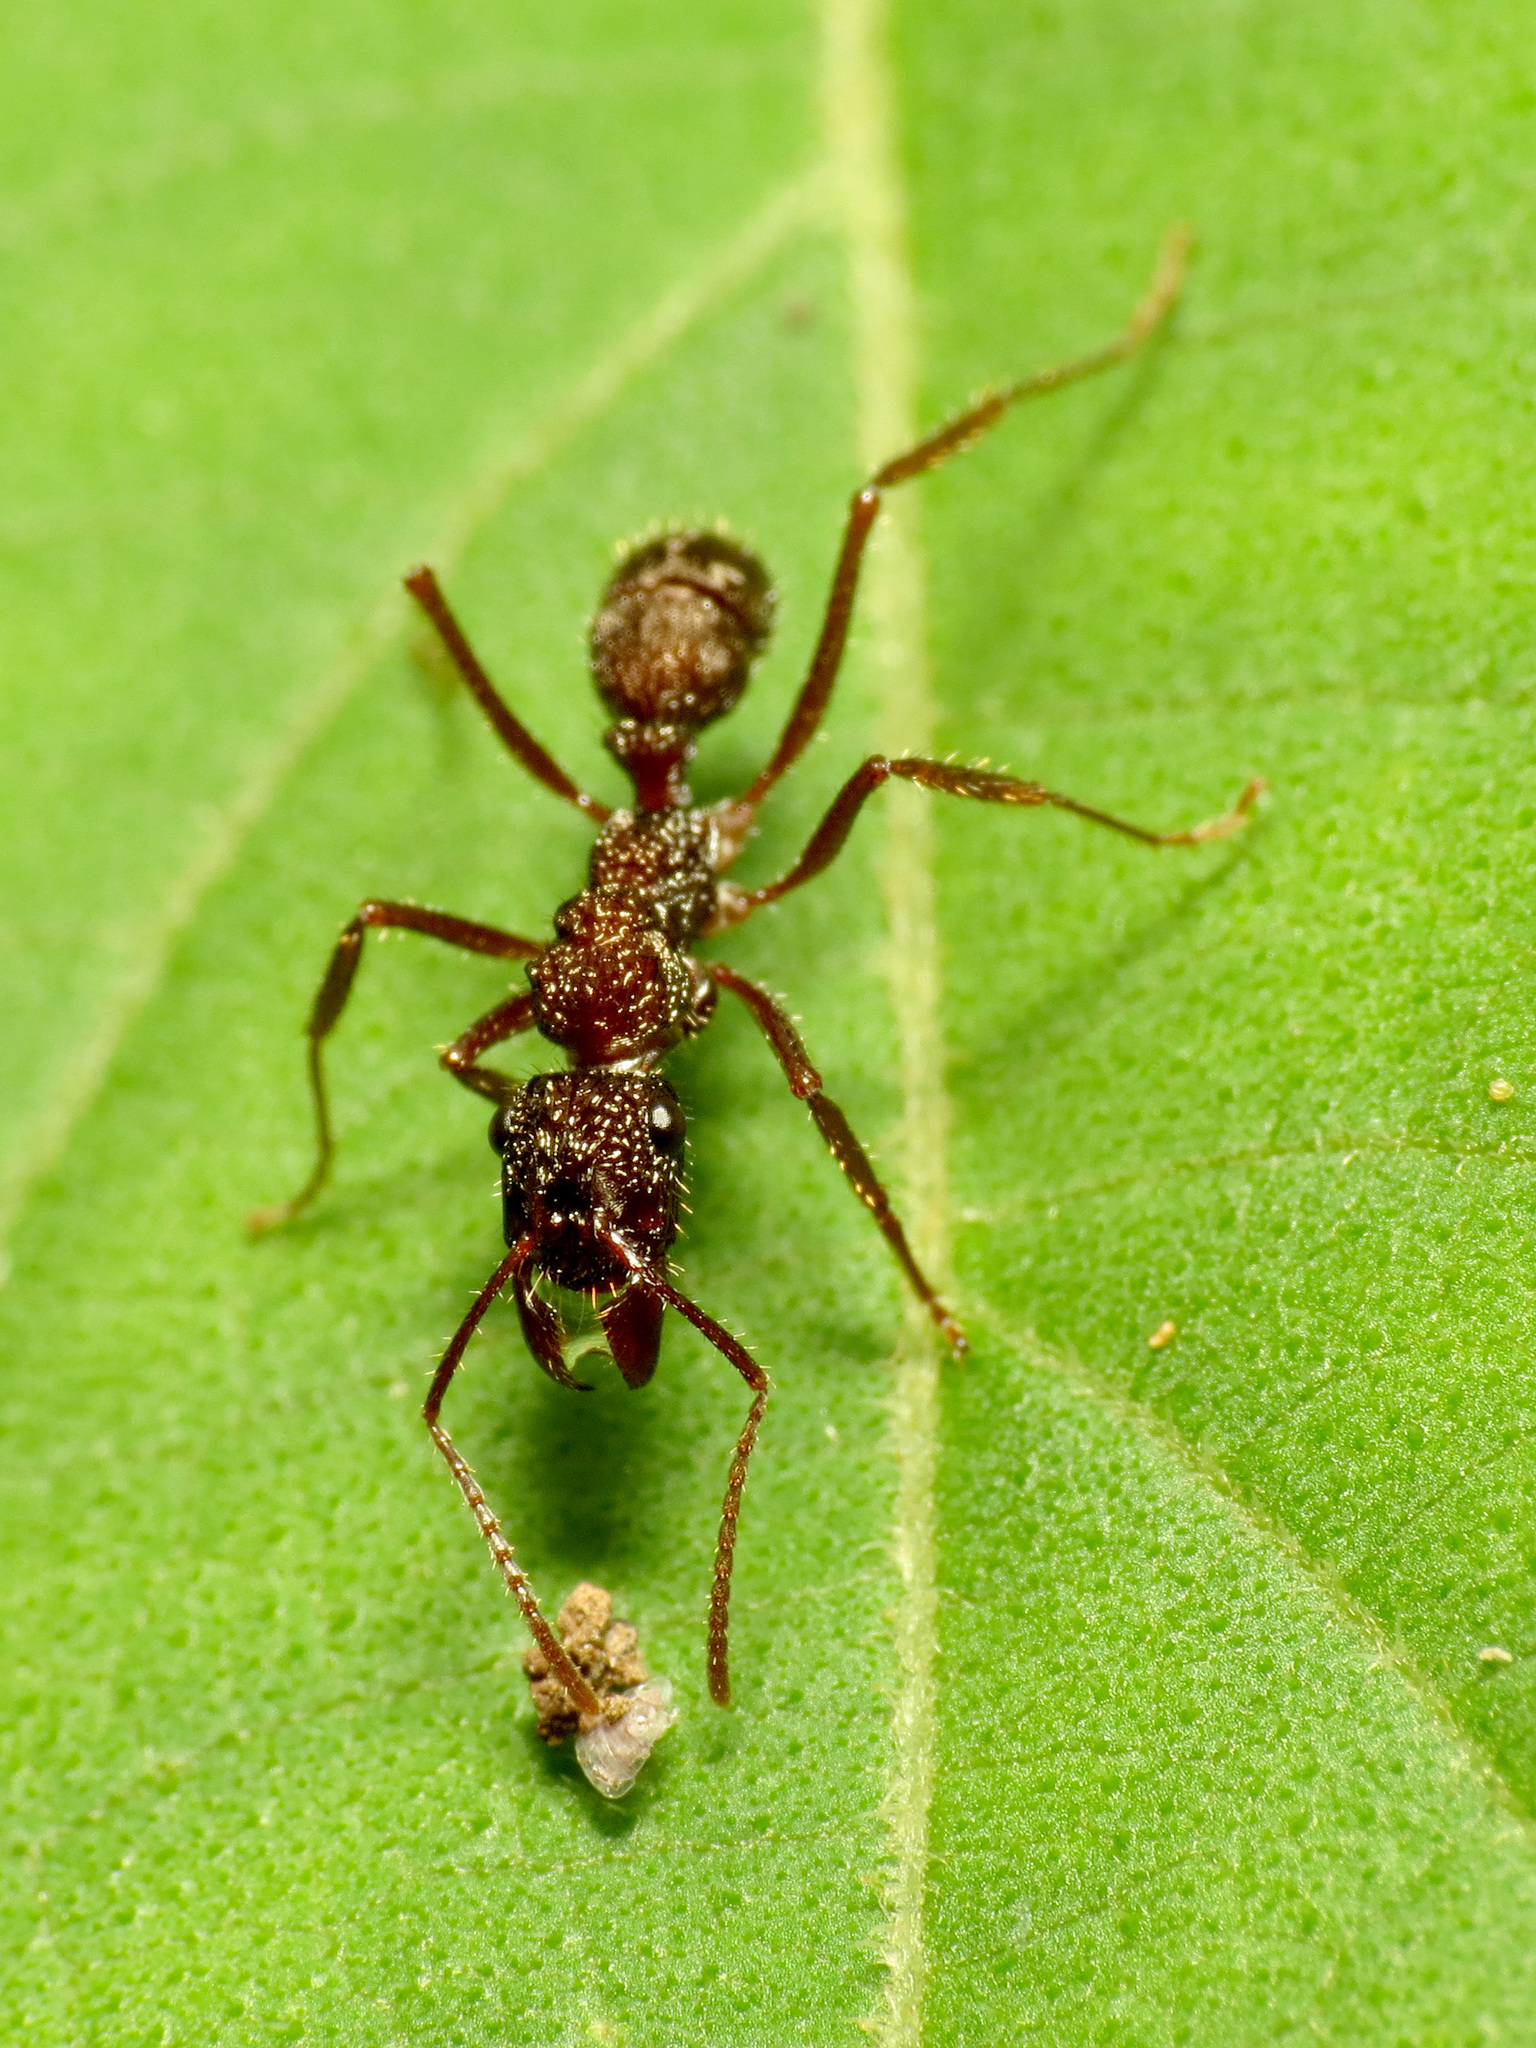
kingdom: Animalia
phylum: Arthropoda
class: Insecta
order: Hymenoptera
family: Formicidae
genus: Ectatomma
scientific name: Ectatomma ruidum
